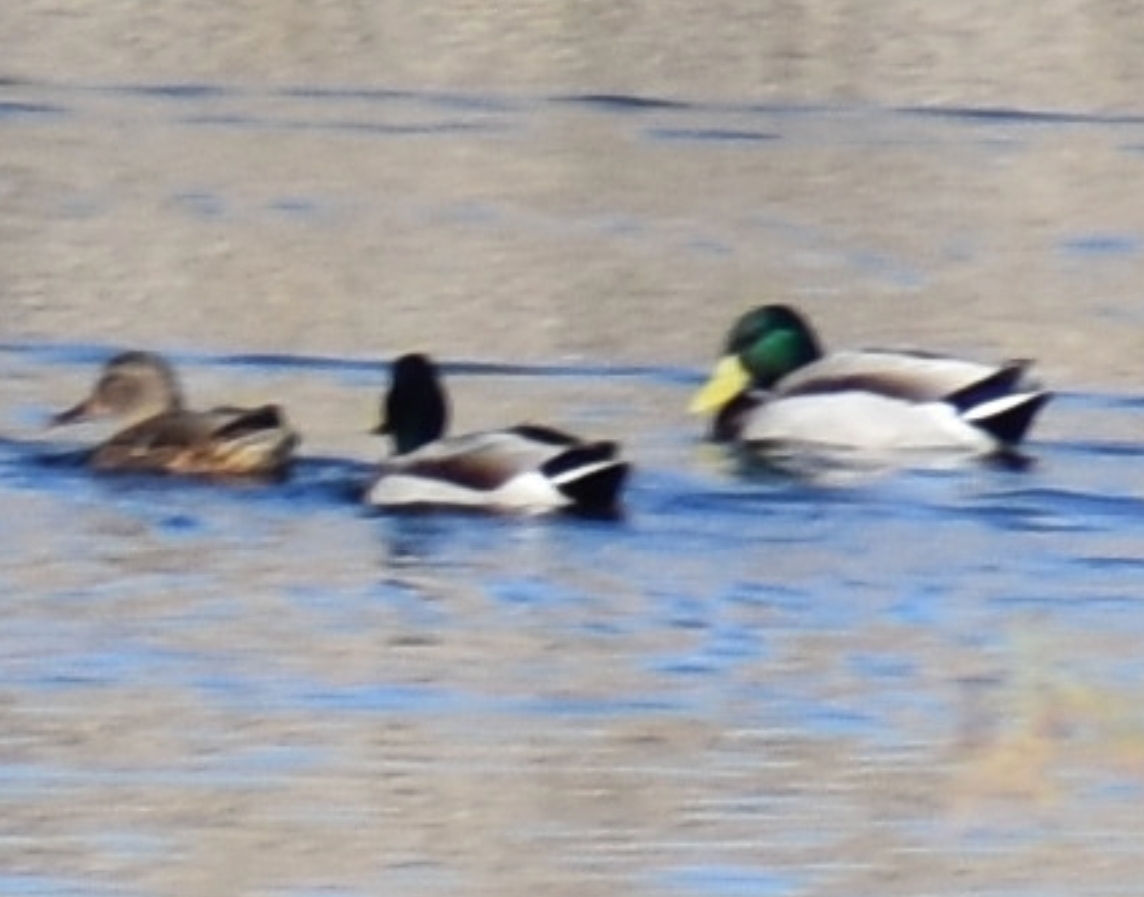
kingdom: Animalia
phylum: Chordata
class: Aves
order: Anseriformes
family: Anatidae
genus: Anas
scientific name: Anas platyrhynchos
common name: Mallard
